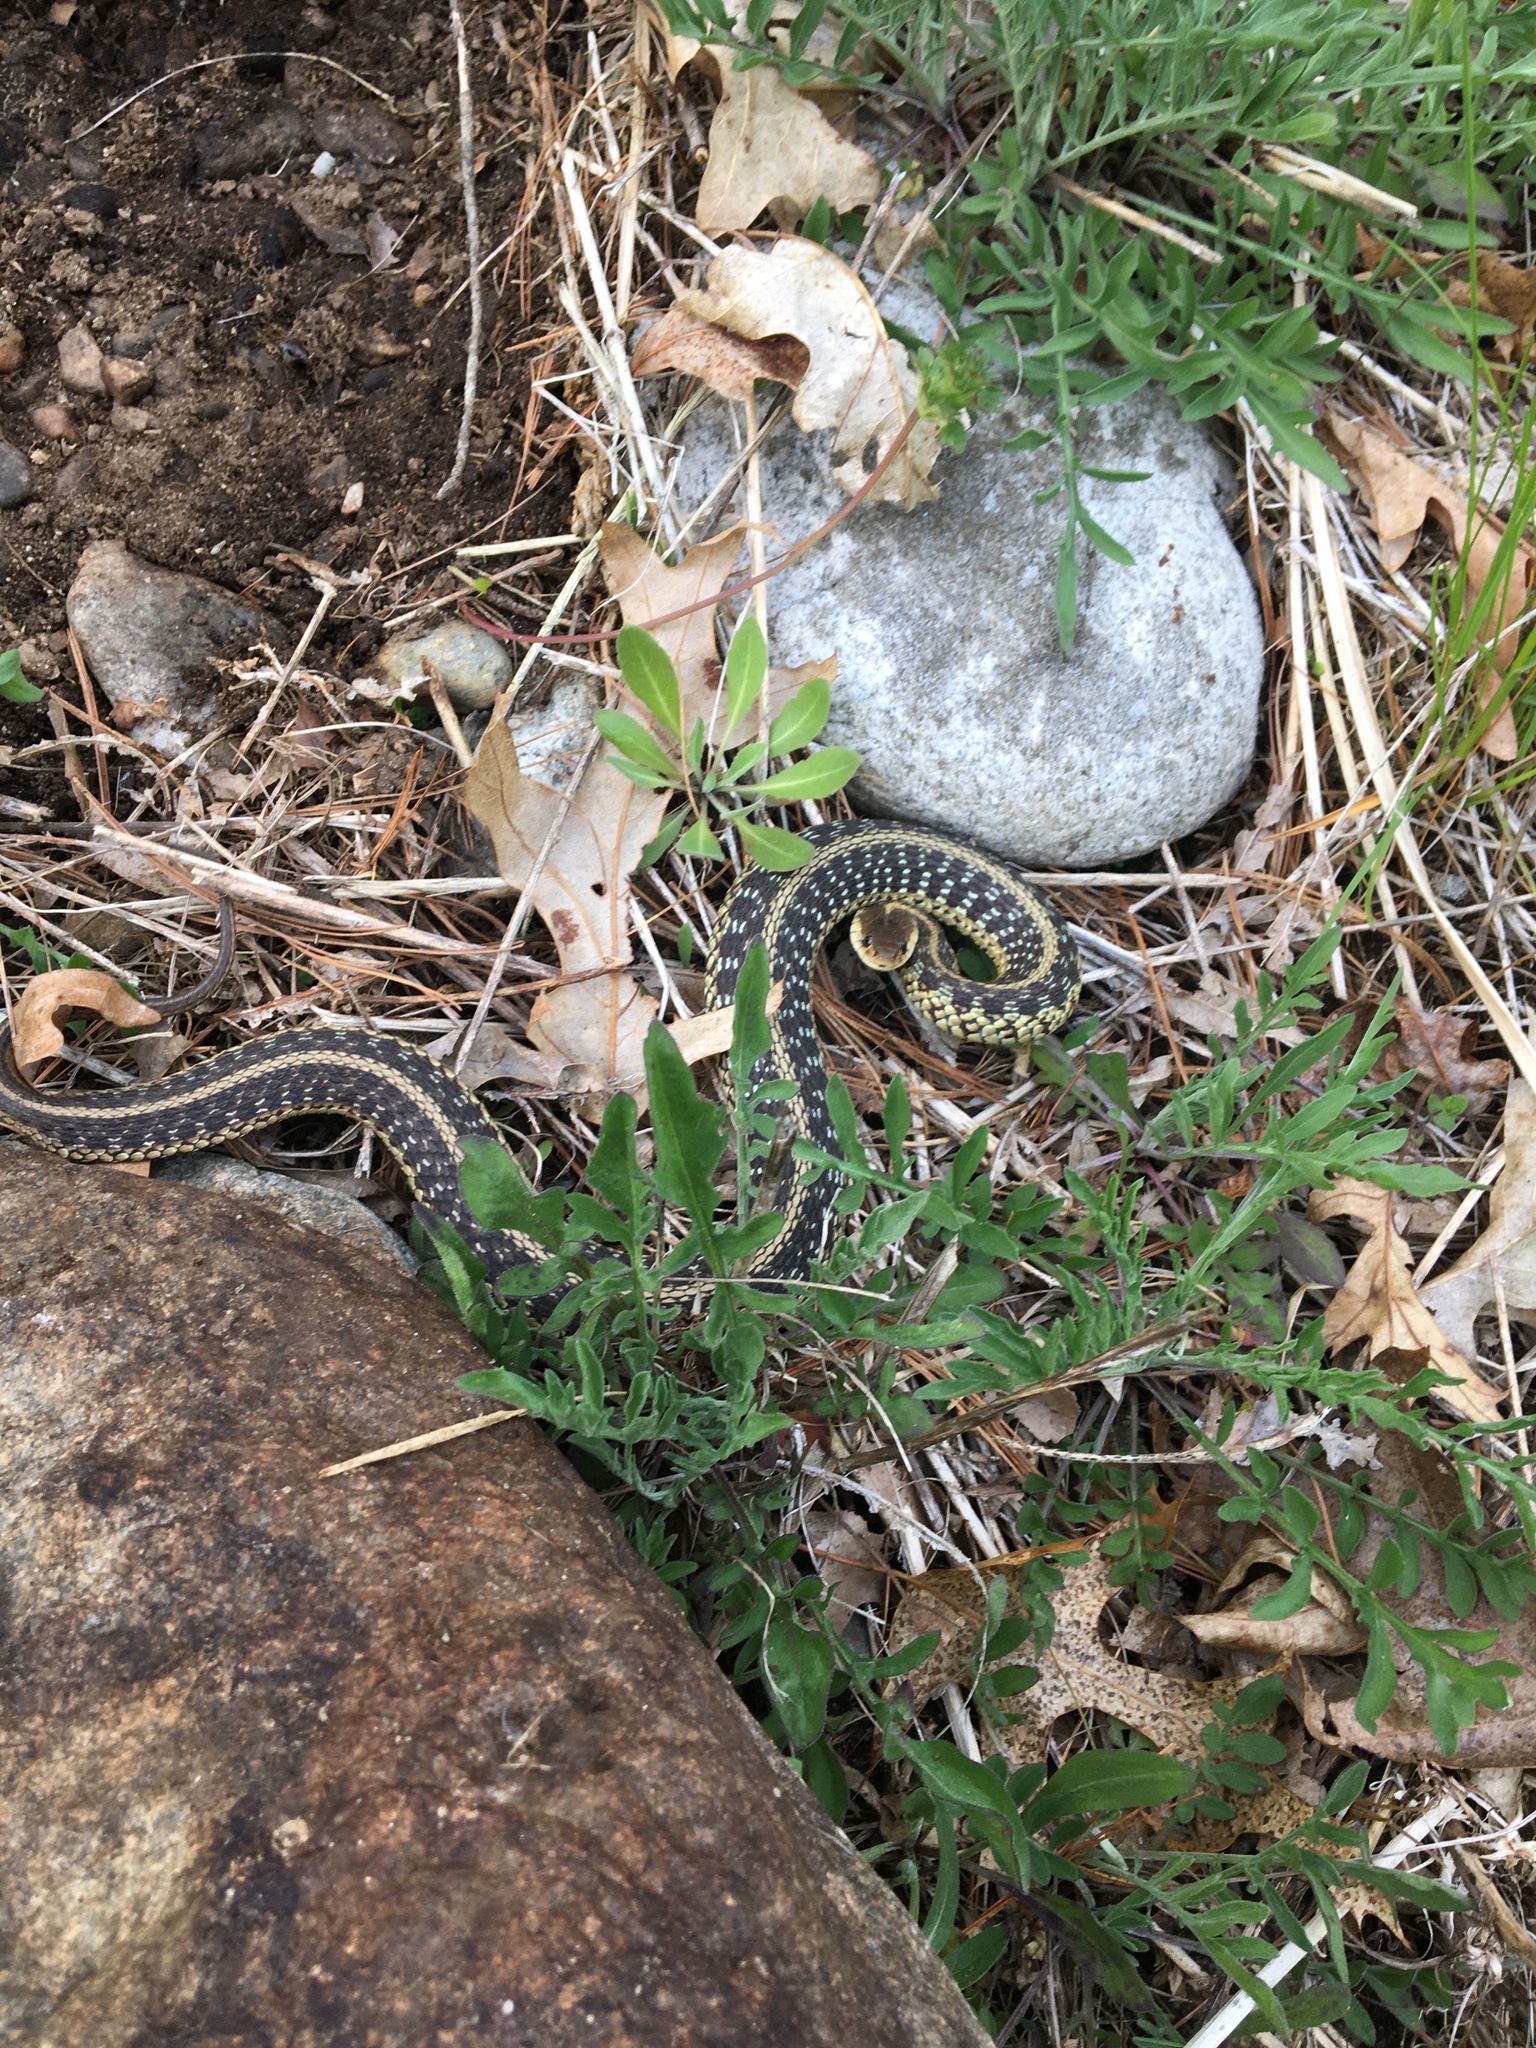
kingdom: Animalia
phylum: Chordata
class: Squamata
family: Colubridae
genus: Thamnophis
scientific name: Thamnophis sirtalis
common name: Common garter snake
